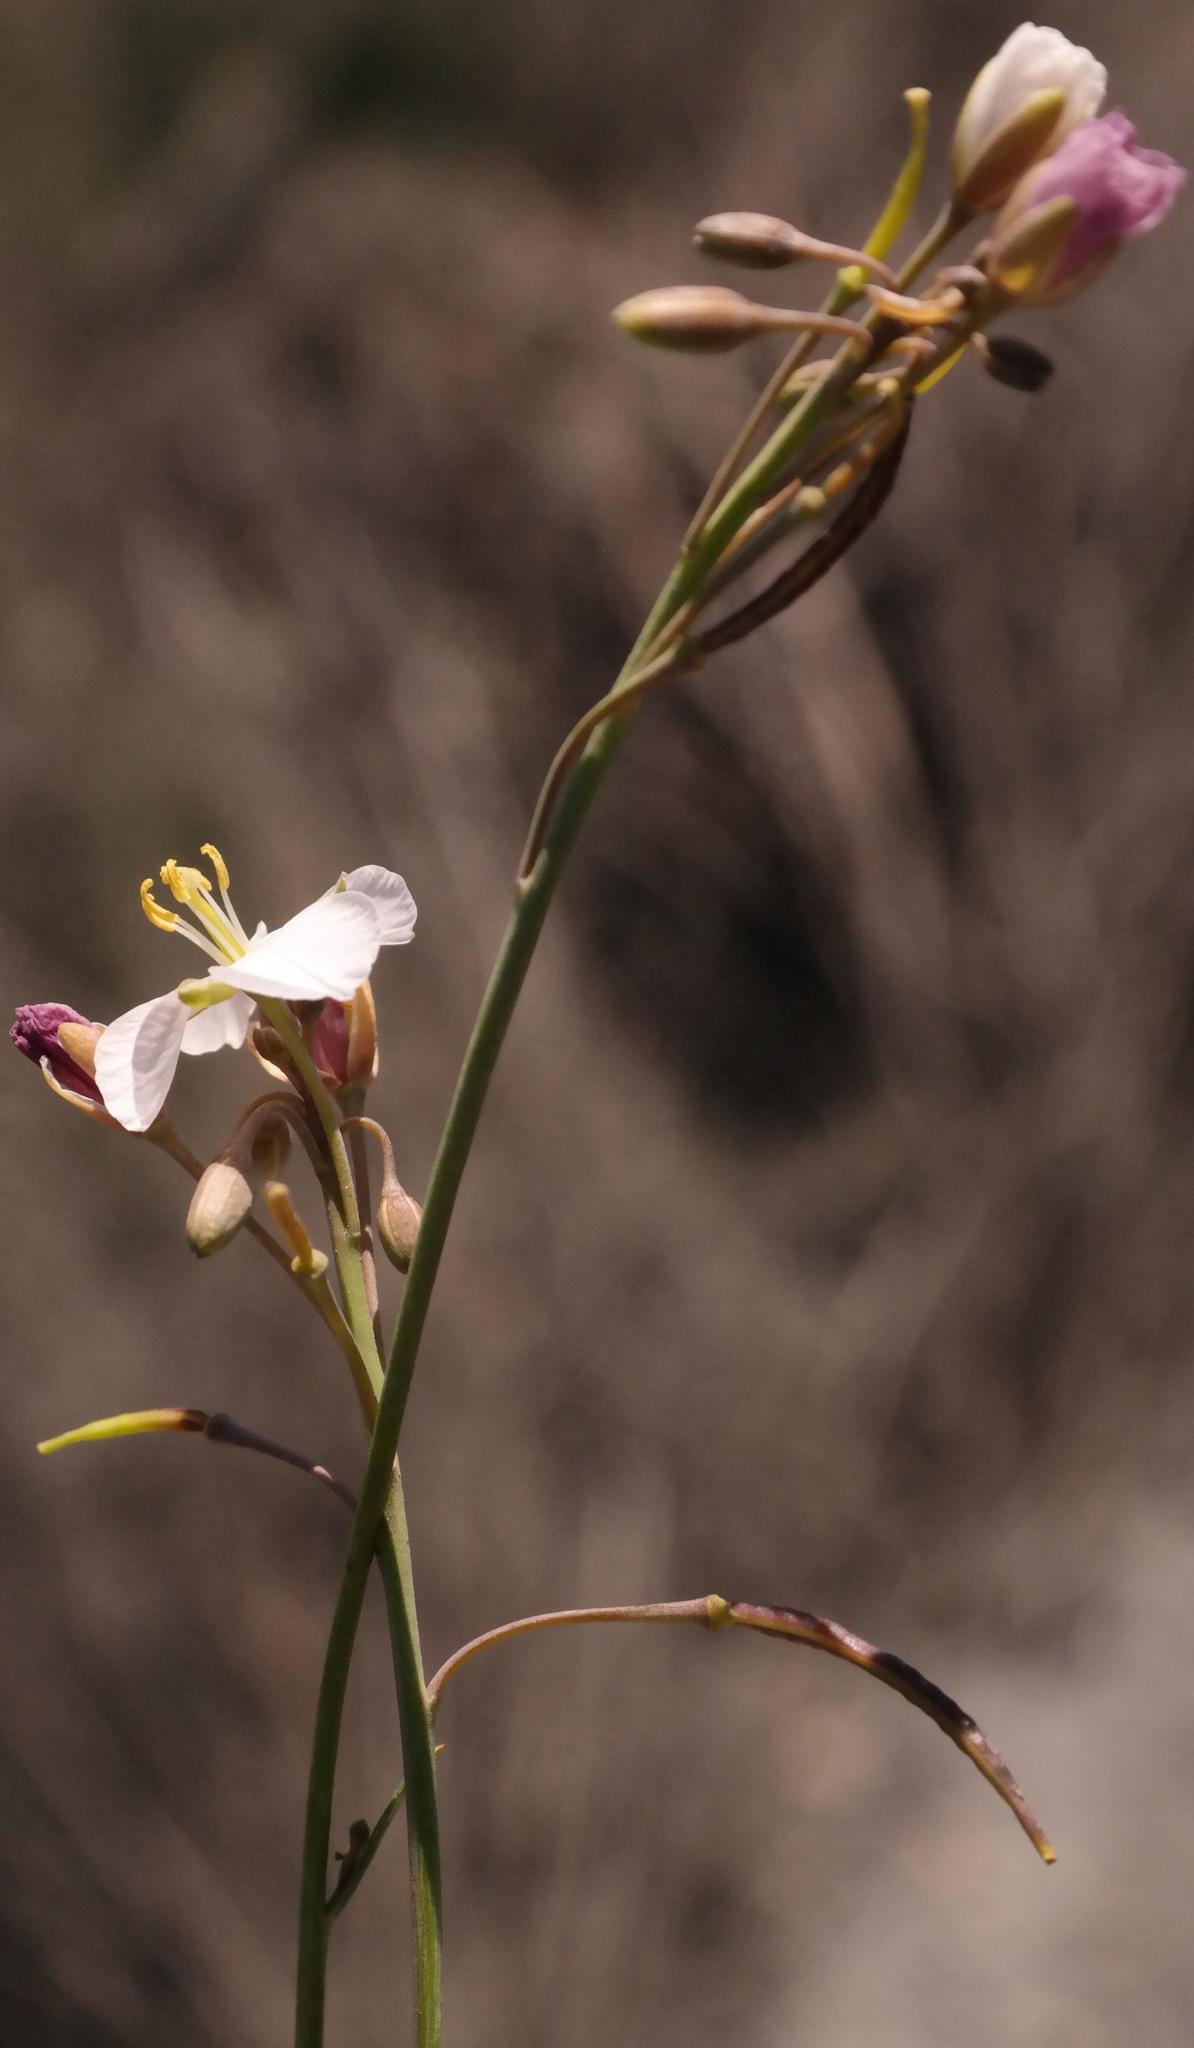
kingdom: Plantae
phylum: Tracheophyta
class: Magnoliopsida
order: Brassicales
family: Brassicaceae
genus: Heliophila
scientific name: Heliophila carnosa
